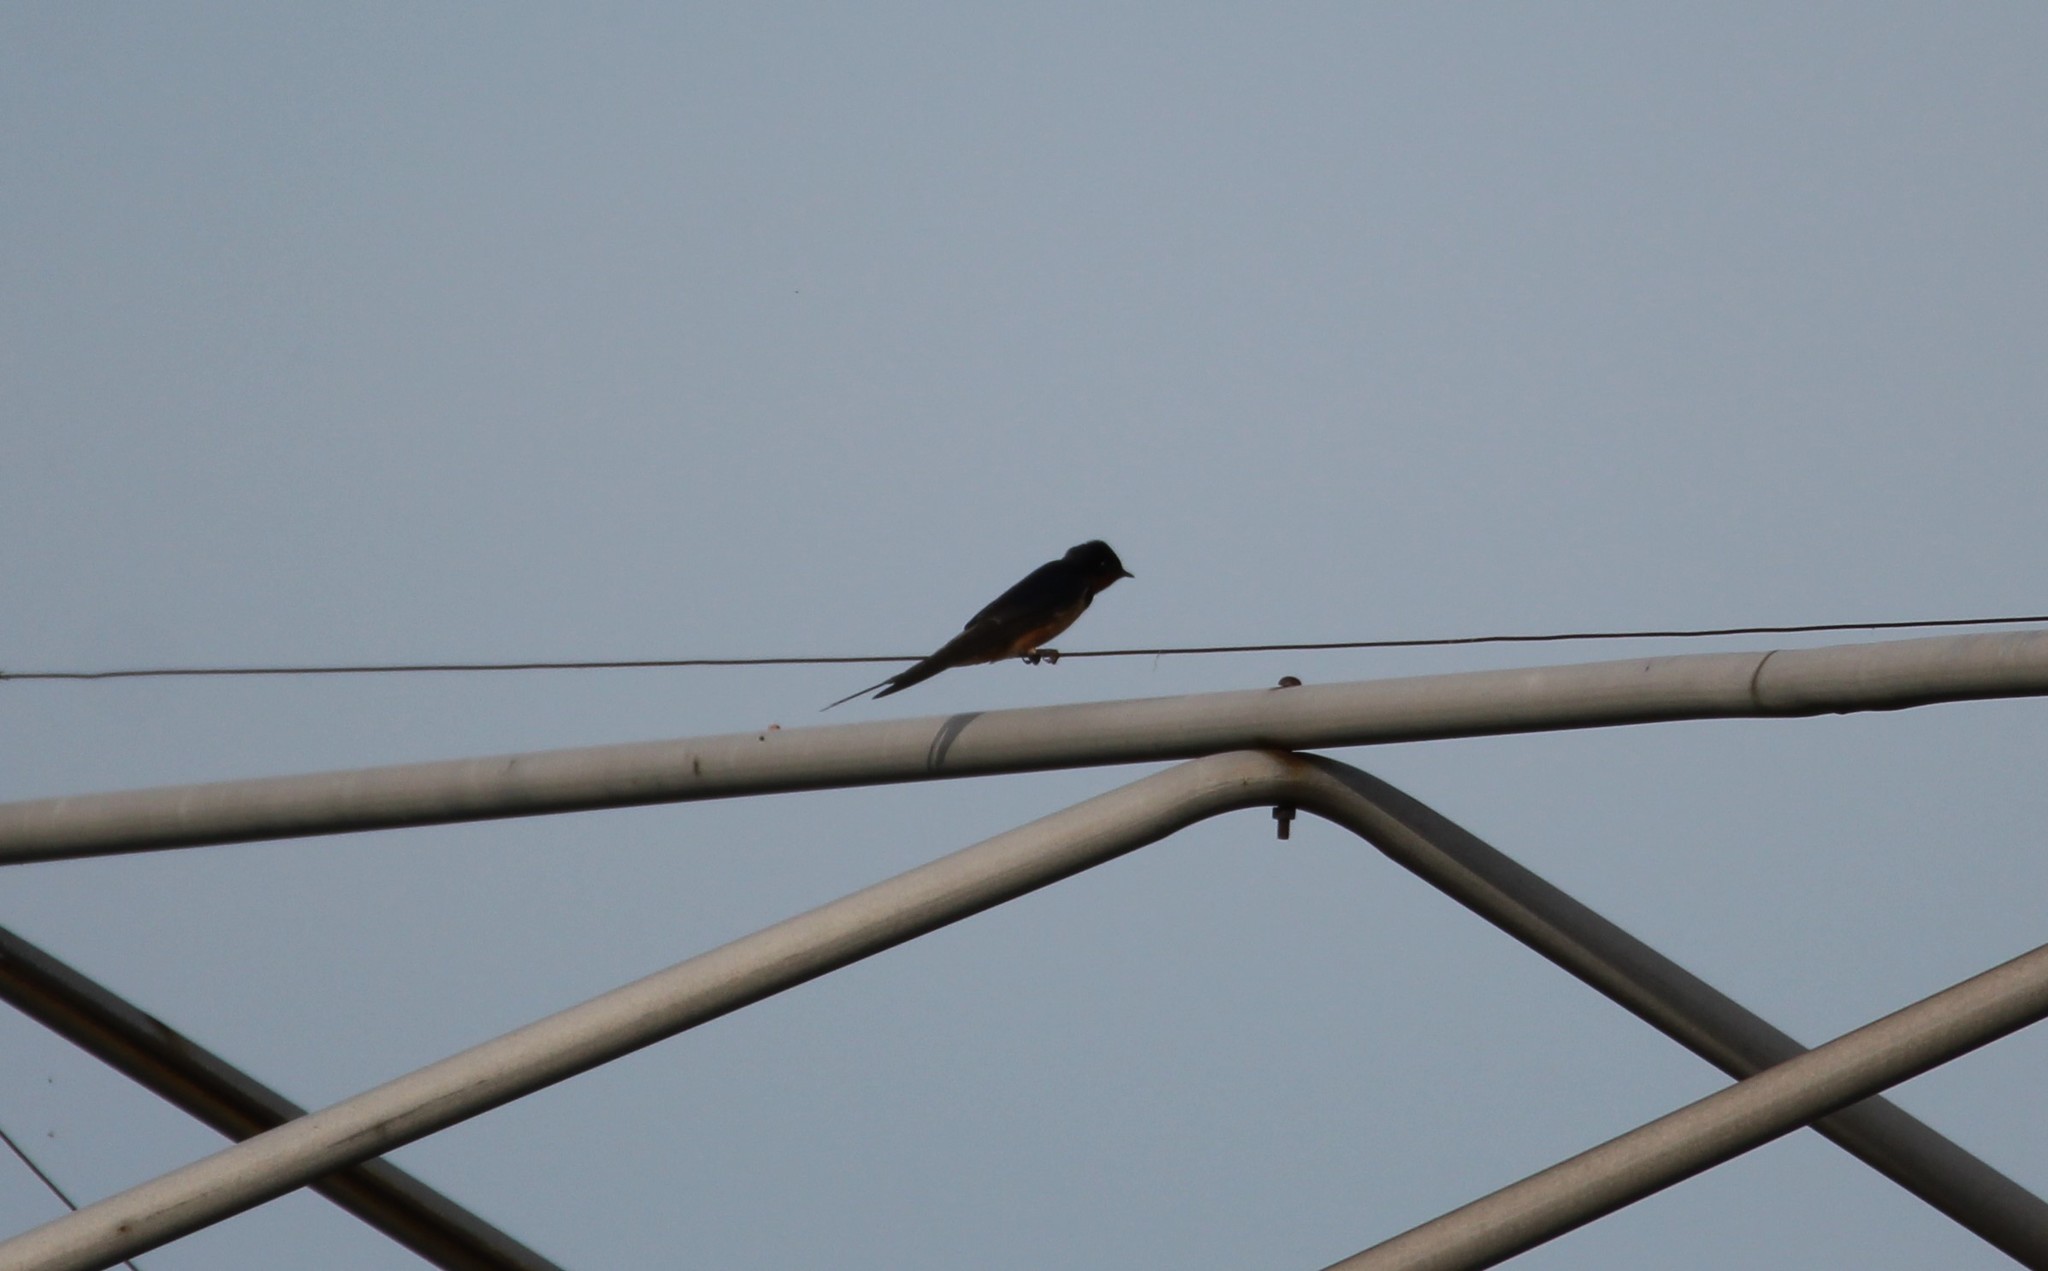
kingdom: Animalia
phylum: Chordata
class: Aves
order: Passeriformes
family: Hirundinidae
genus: Hirundo
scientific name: Hirundo rustica
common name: Barn swallow
